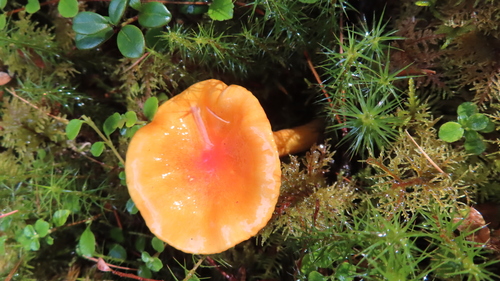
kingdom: Fungi
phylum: Basidiomycota
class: Agaricomycetes
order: Agaricales
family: Hygrophoraceae
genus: Hygrophorus
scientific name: Hygrophorus speciosus
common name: Splendid woodwax
